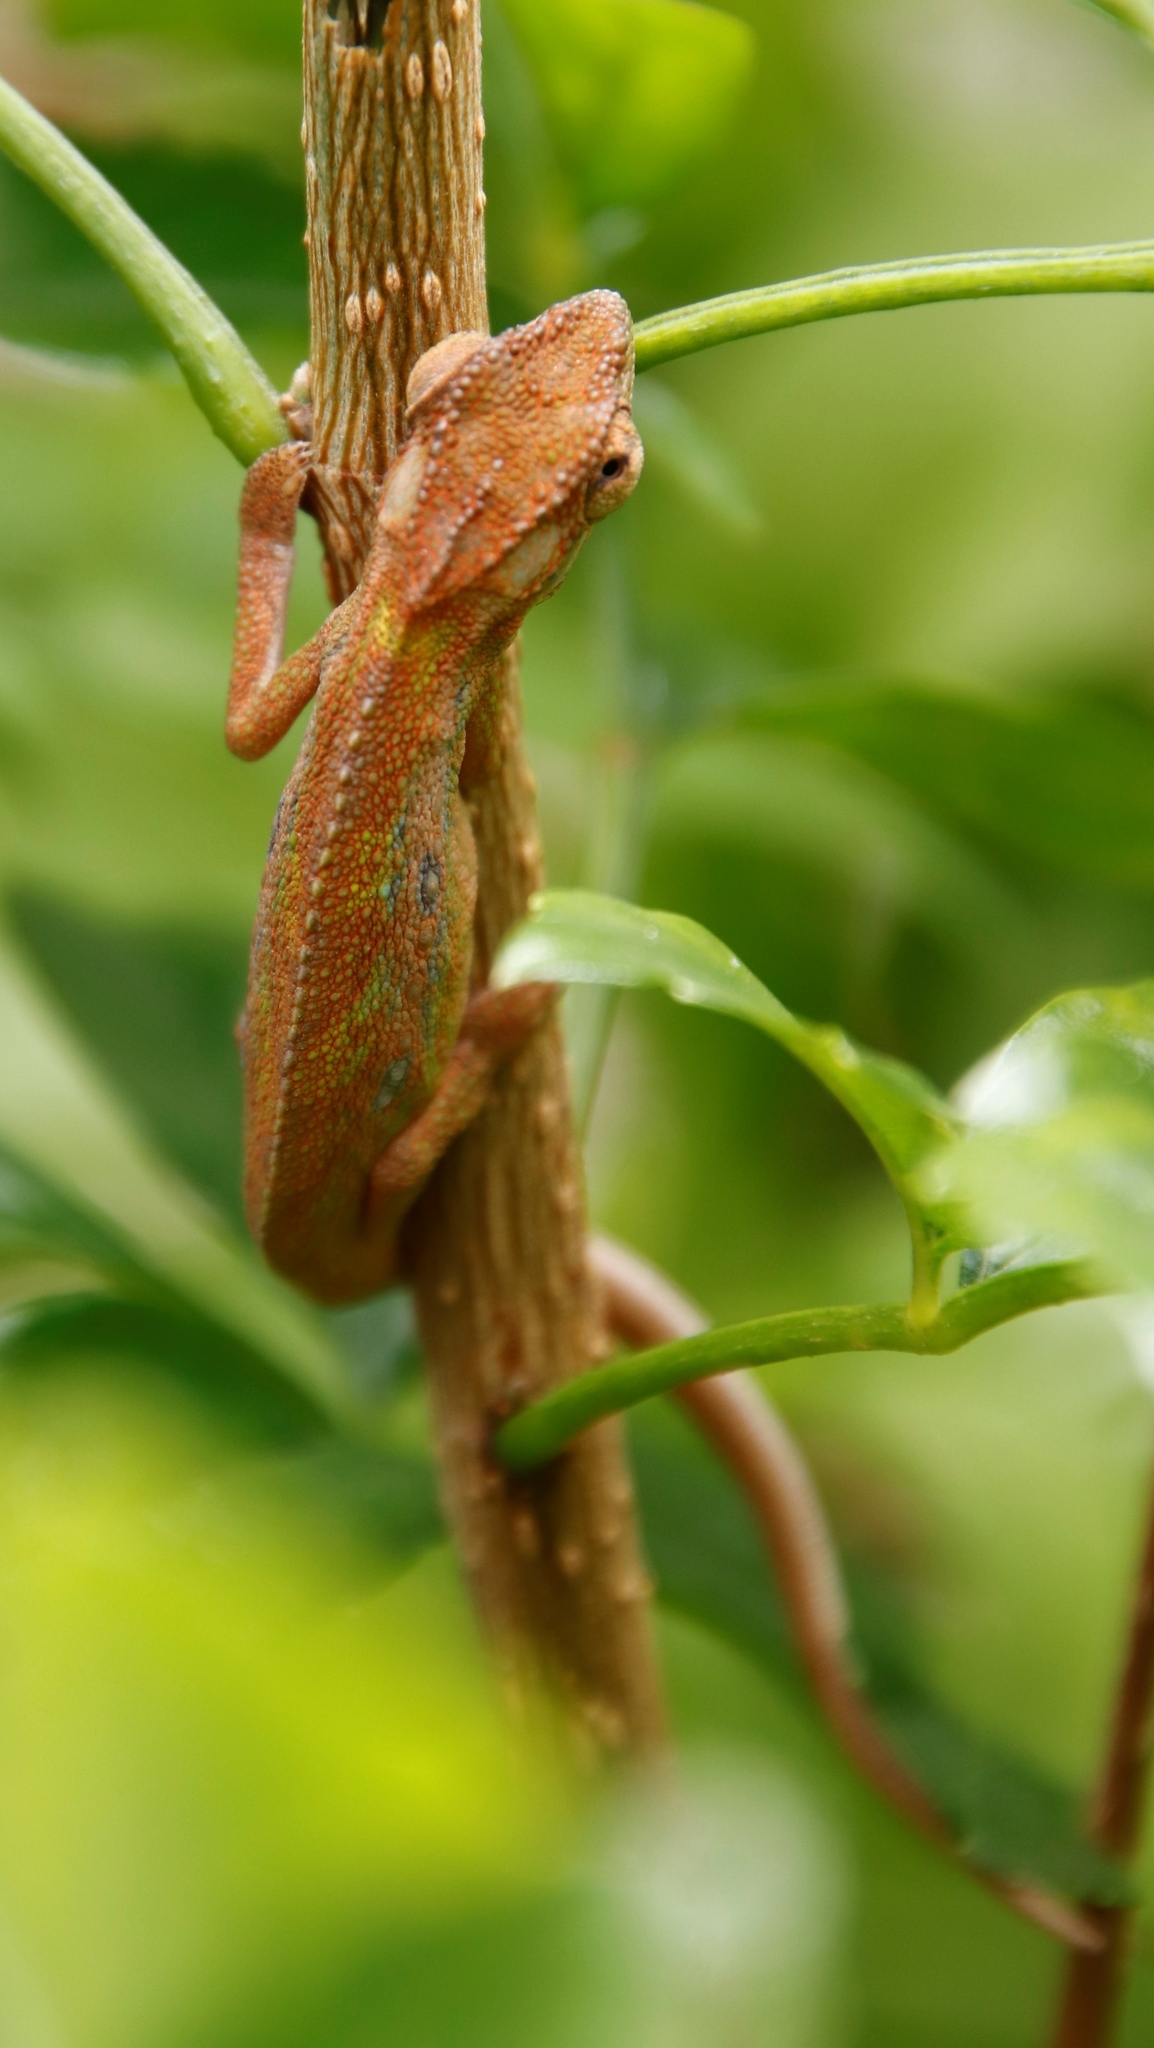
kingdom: Animalia
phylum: Chordata
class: Squamata
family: Chamaeleonidae
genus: Bradypodion
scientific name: Bradypodion pumilum
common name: Cape dwarf chameleon
